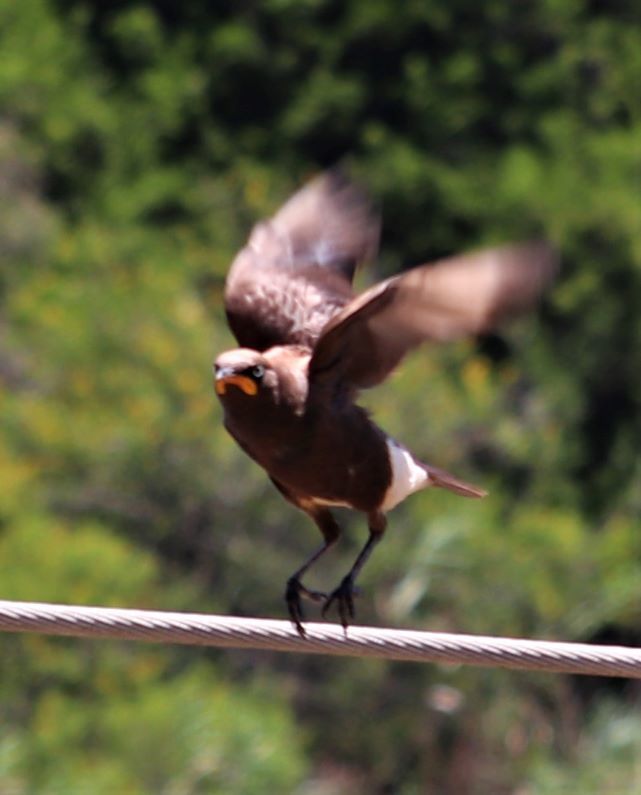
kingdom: Animalia
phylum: Chordata
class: Aves
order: Passeriformes
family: Sturnidae
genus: Lamprotornis
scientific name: Lamprotornis bicolor
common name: Pied starling
